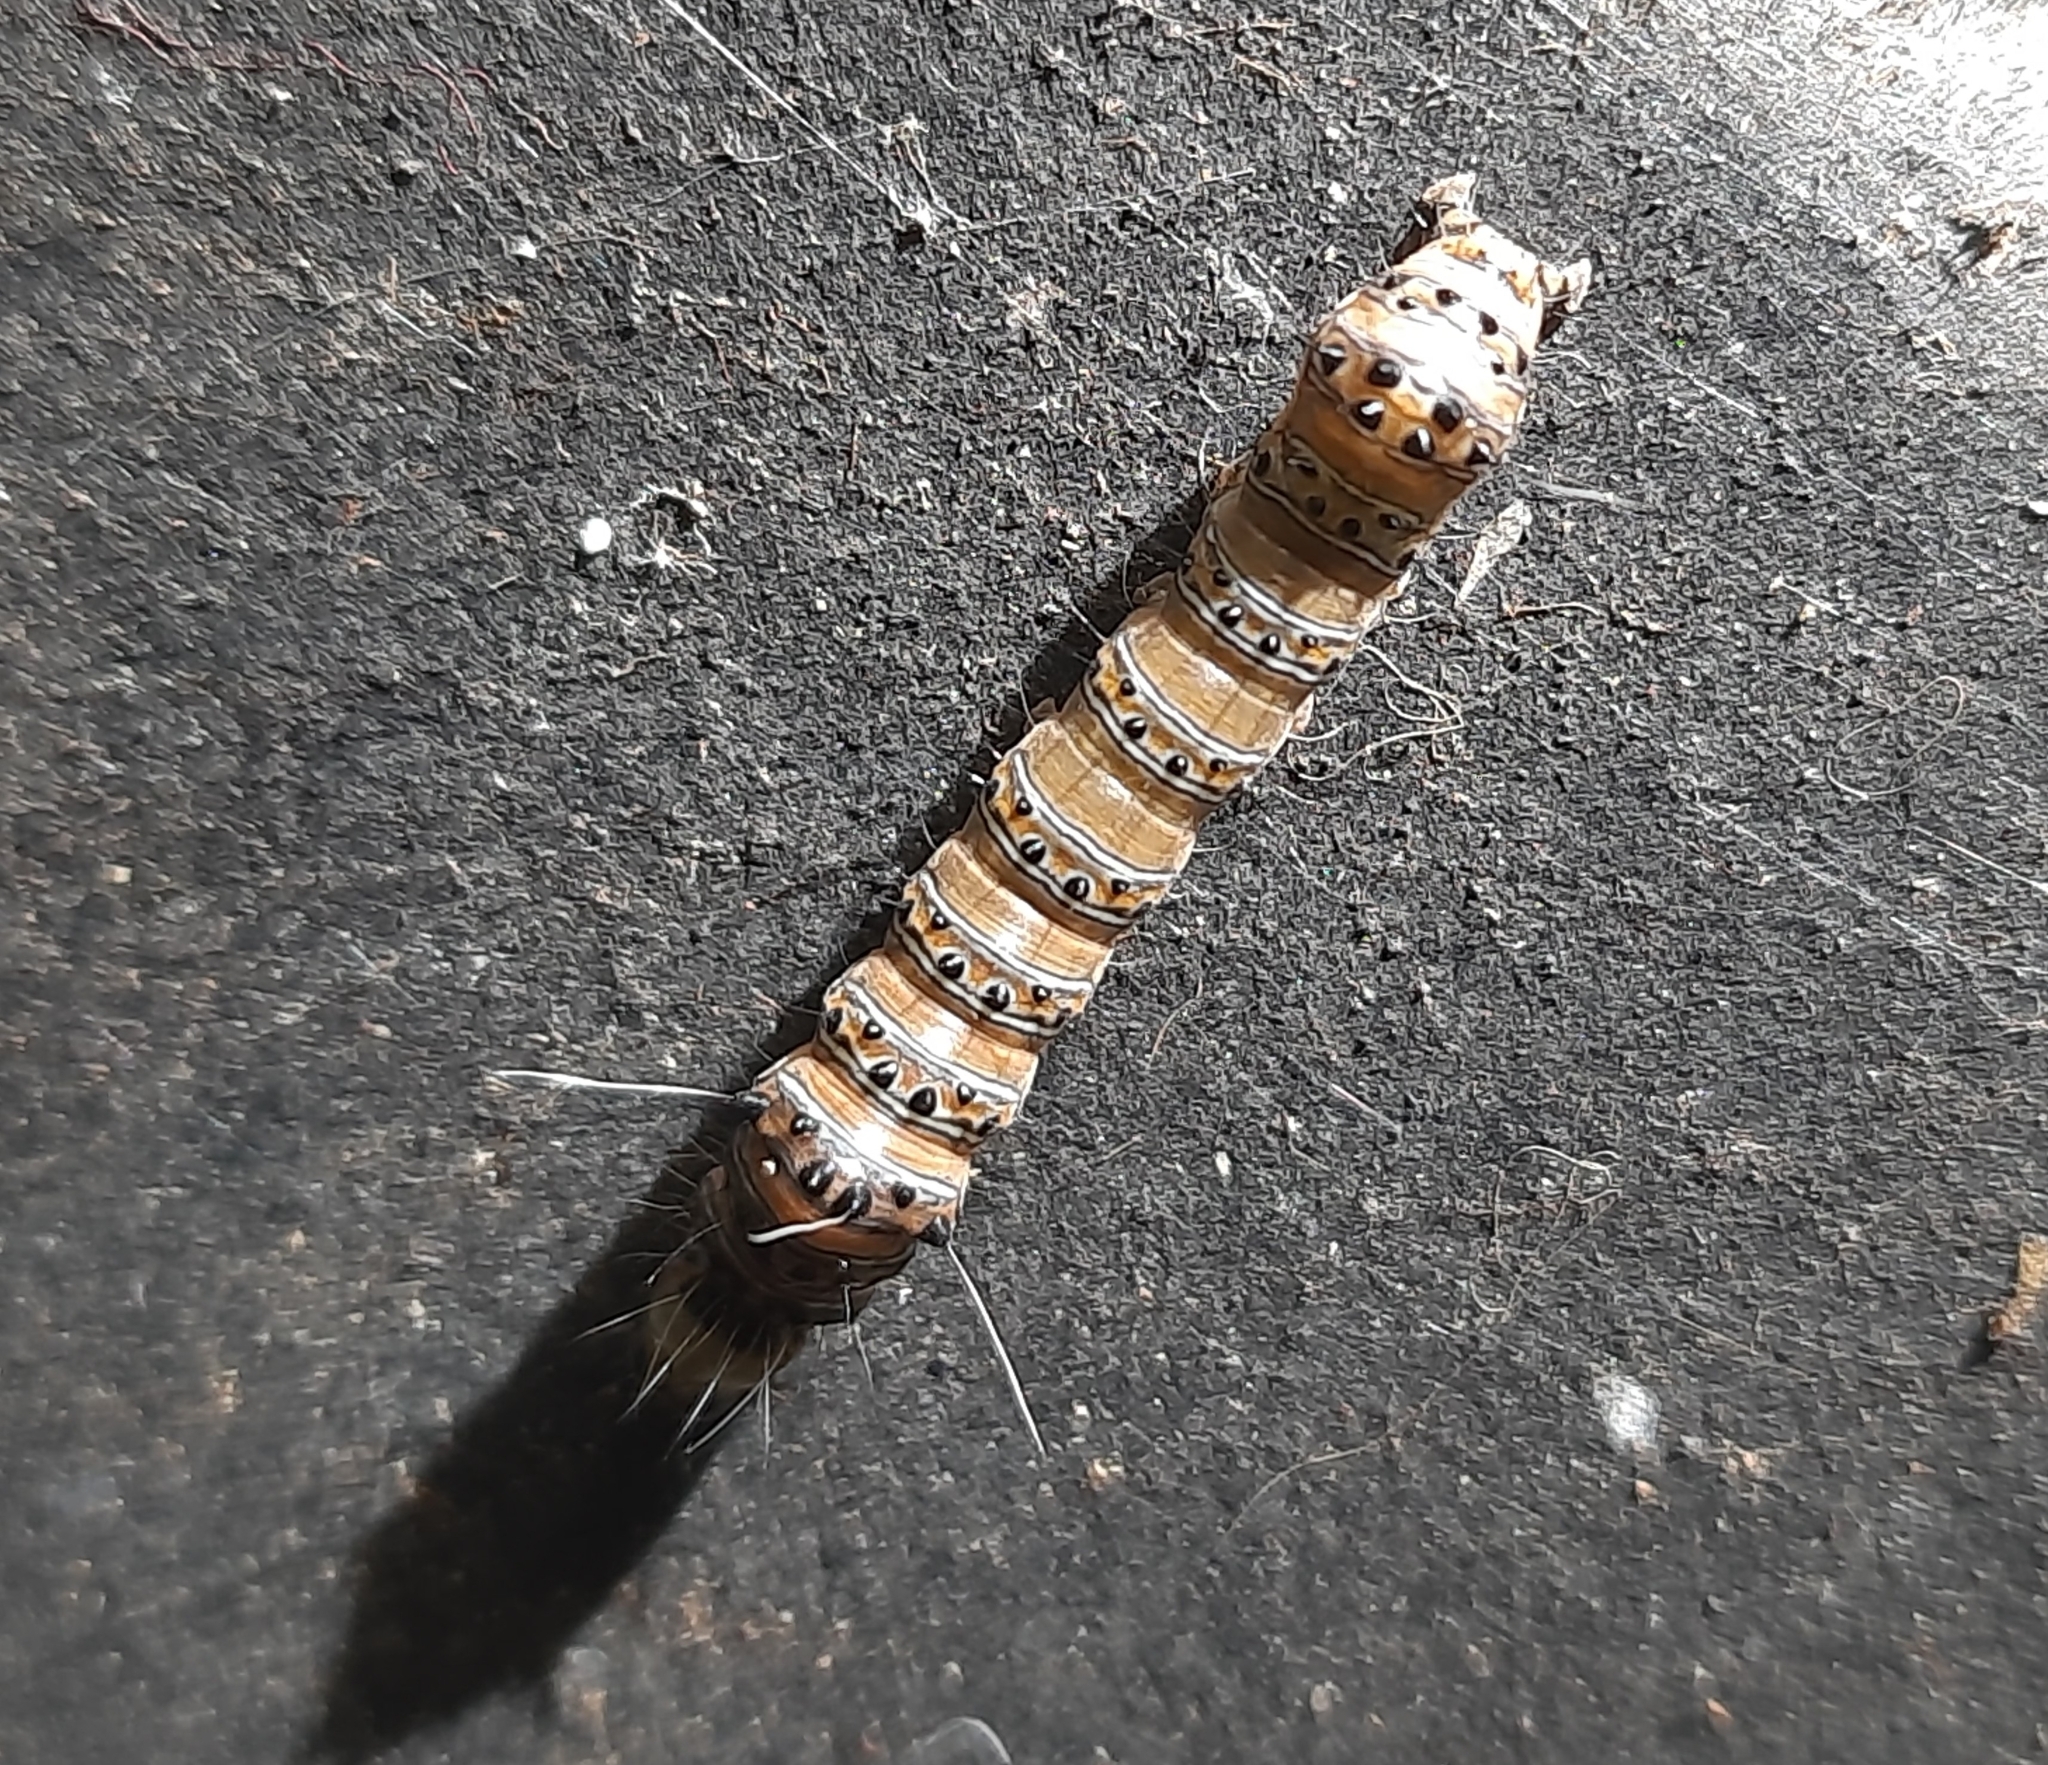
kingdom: Animalia
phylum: Arthropoda
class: Insecta
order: Lepidoptera
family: Noctuidae
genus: Coenotoca
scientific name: Coenotoca subaspersa
